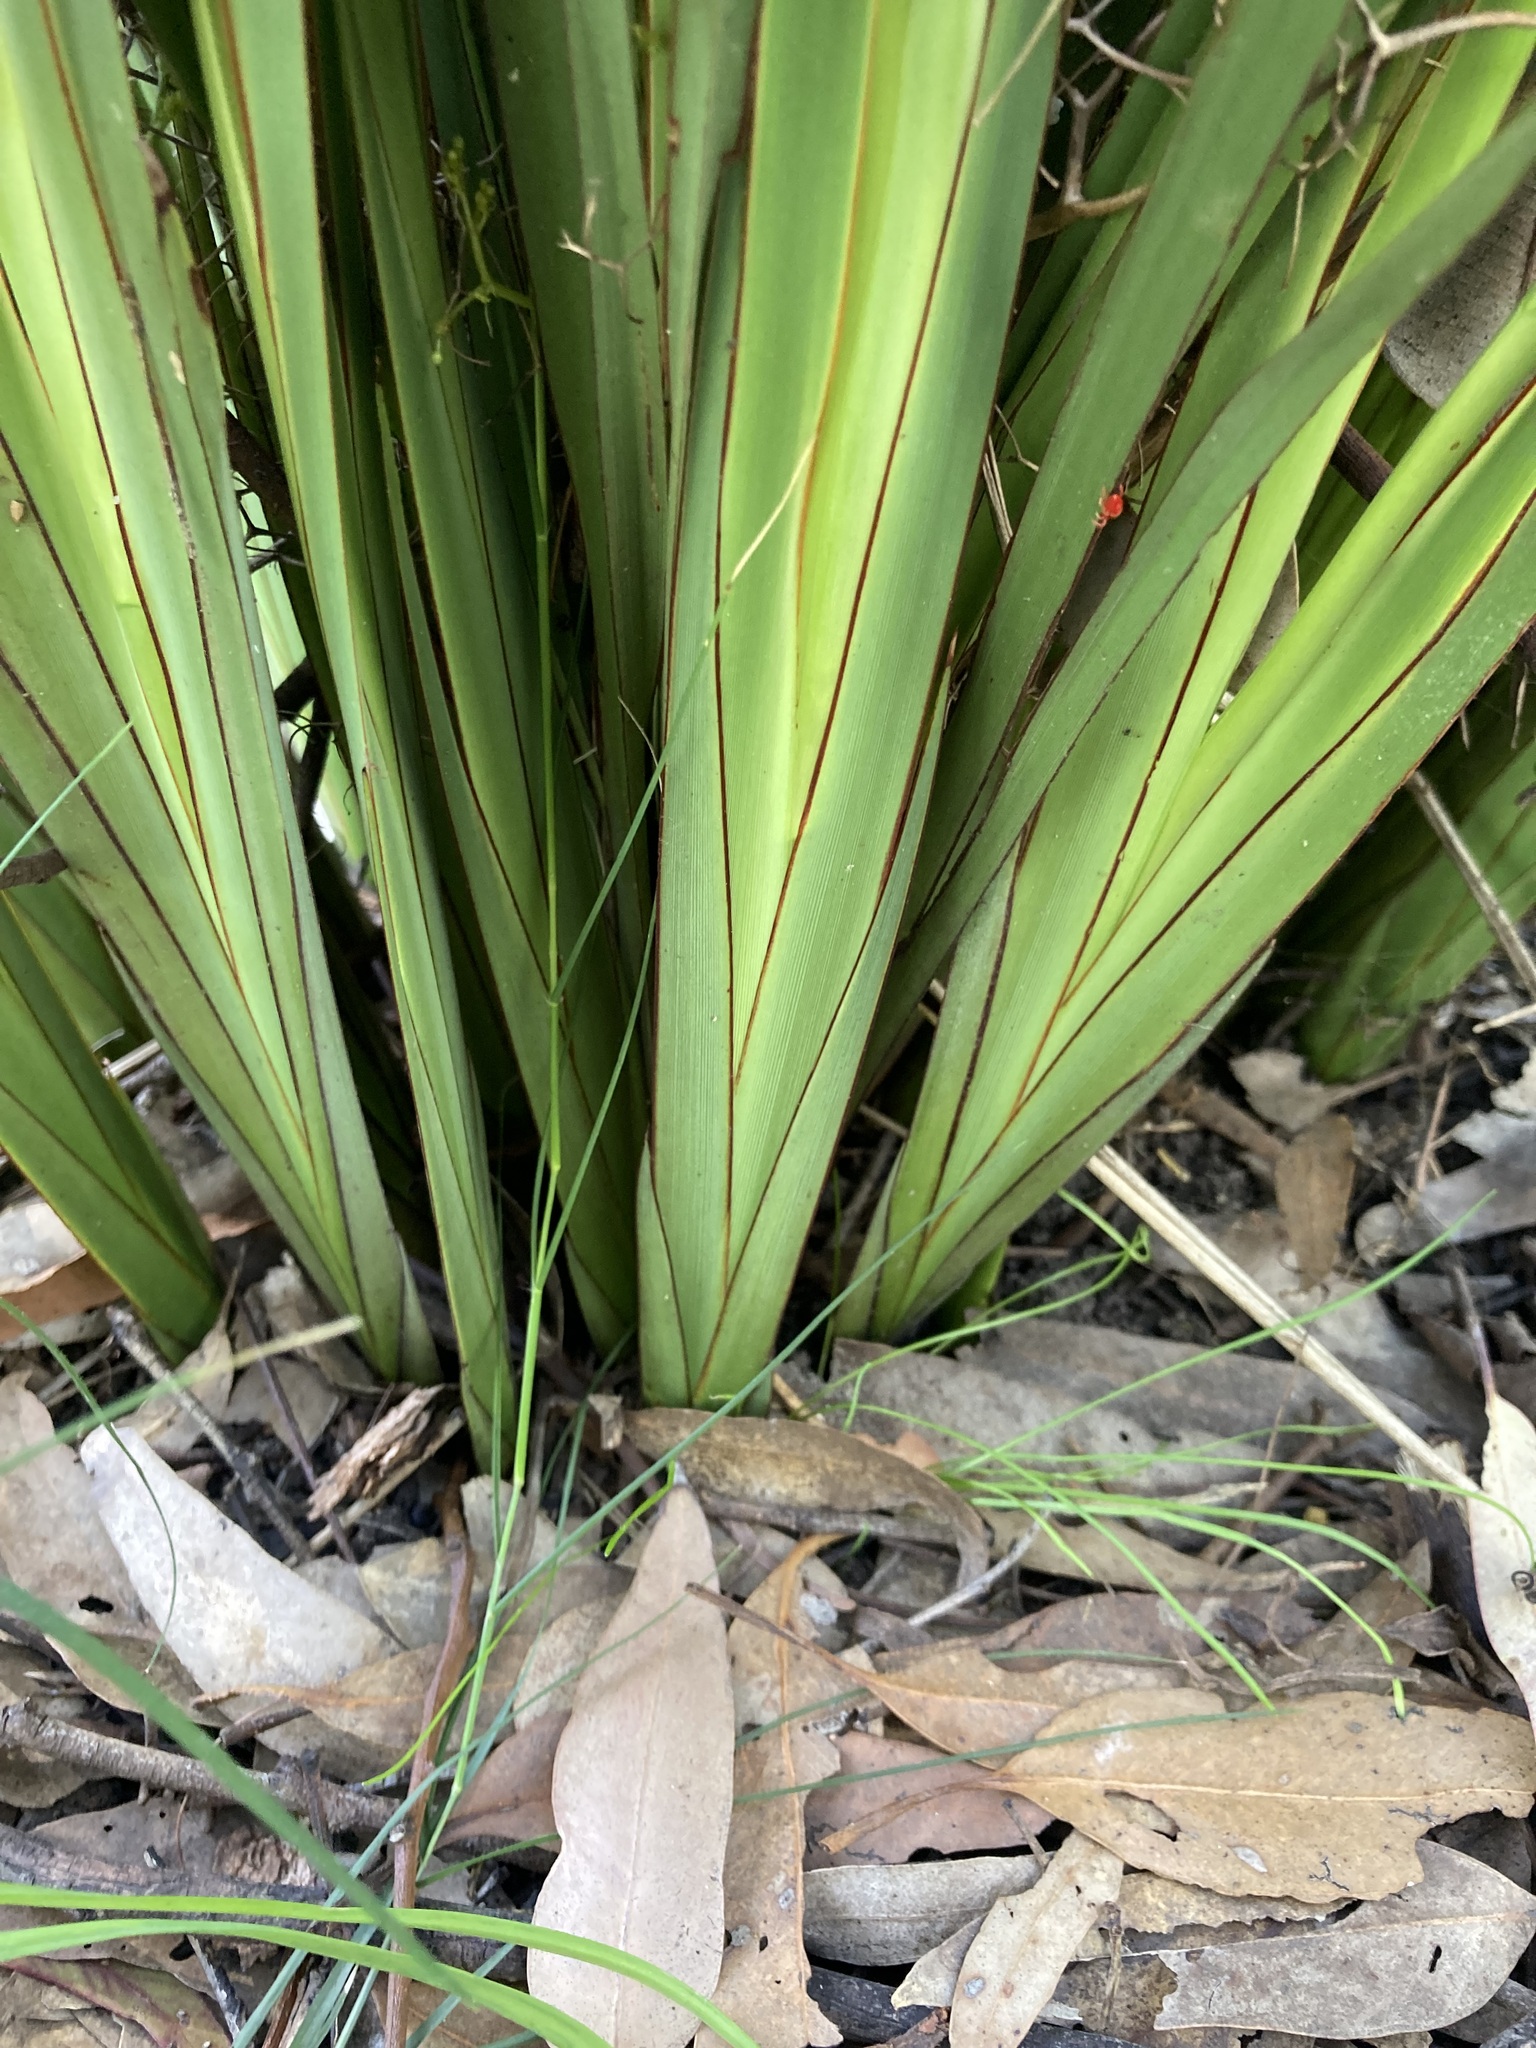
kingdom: Plantae
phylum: Tracheophyta
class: Liliopsida
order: Asparagales
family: Asphodelaceae
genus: Dianella
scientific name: Dianella brevipedunculata
